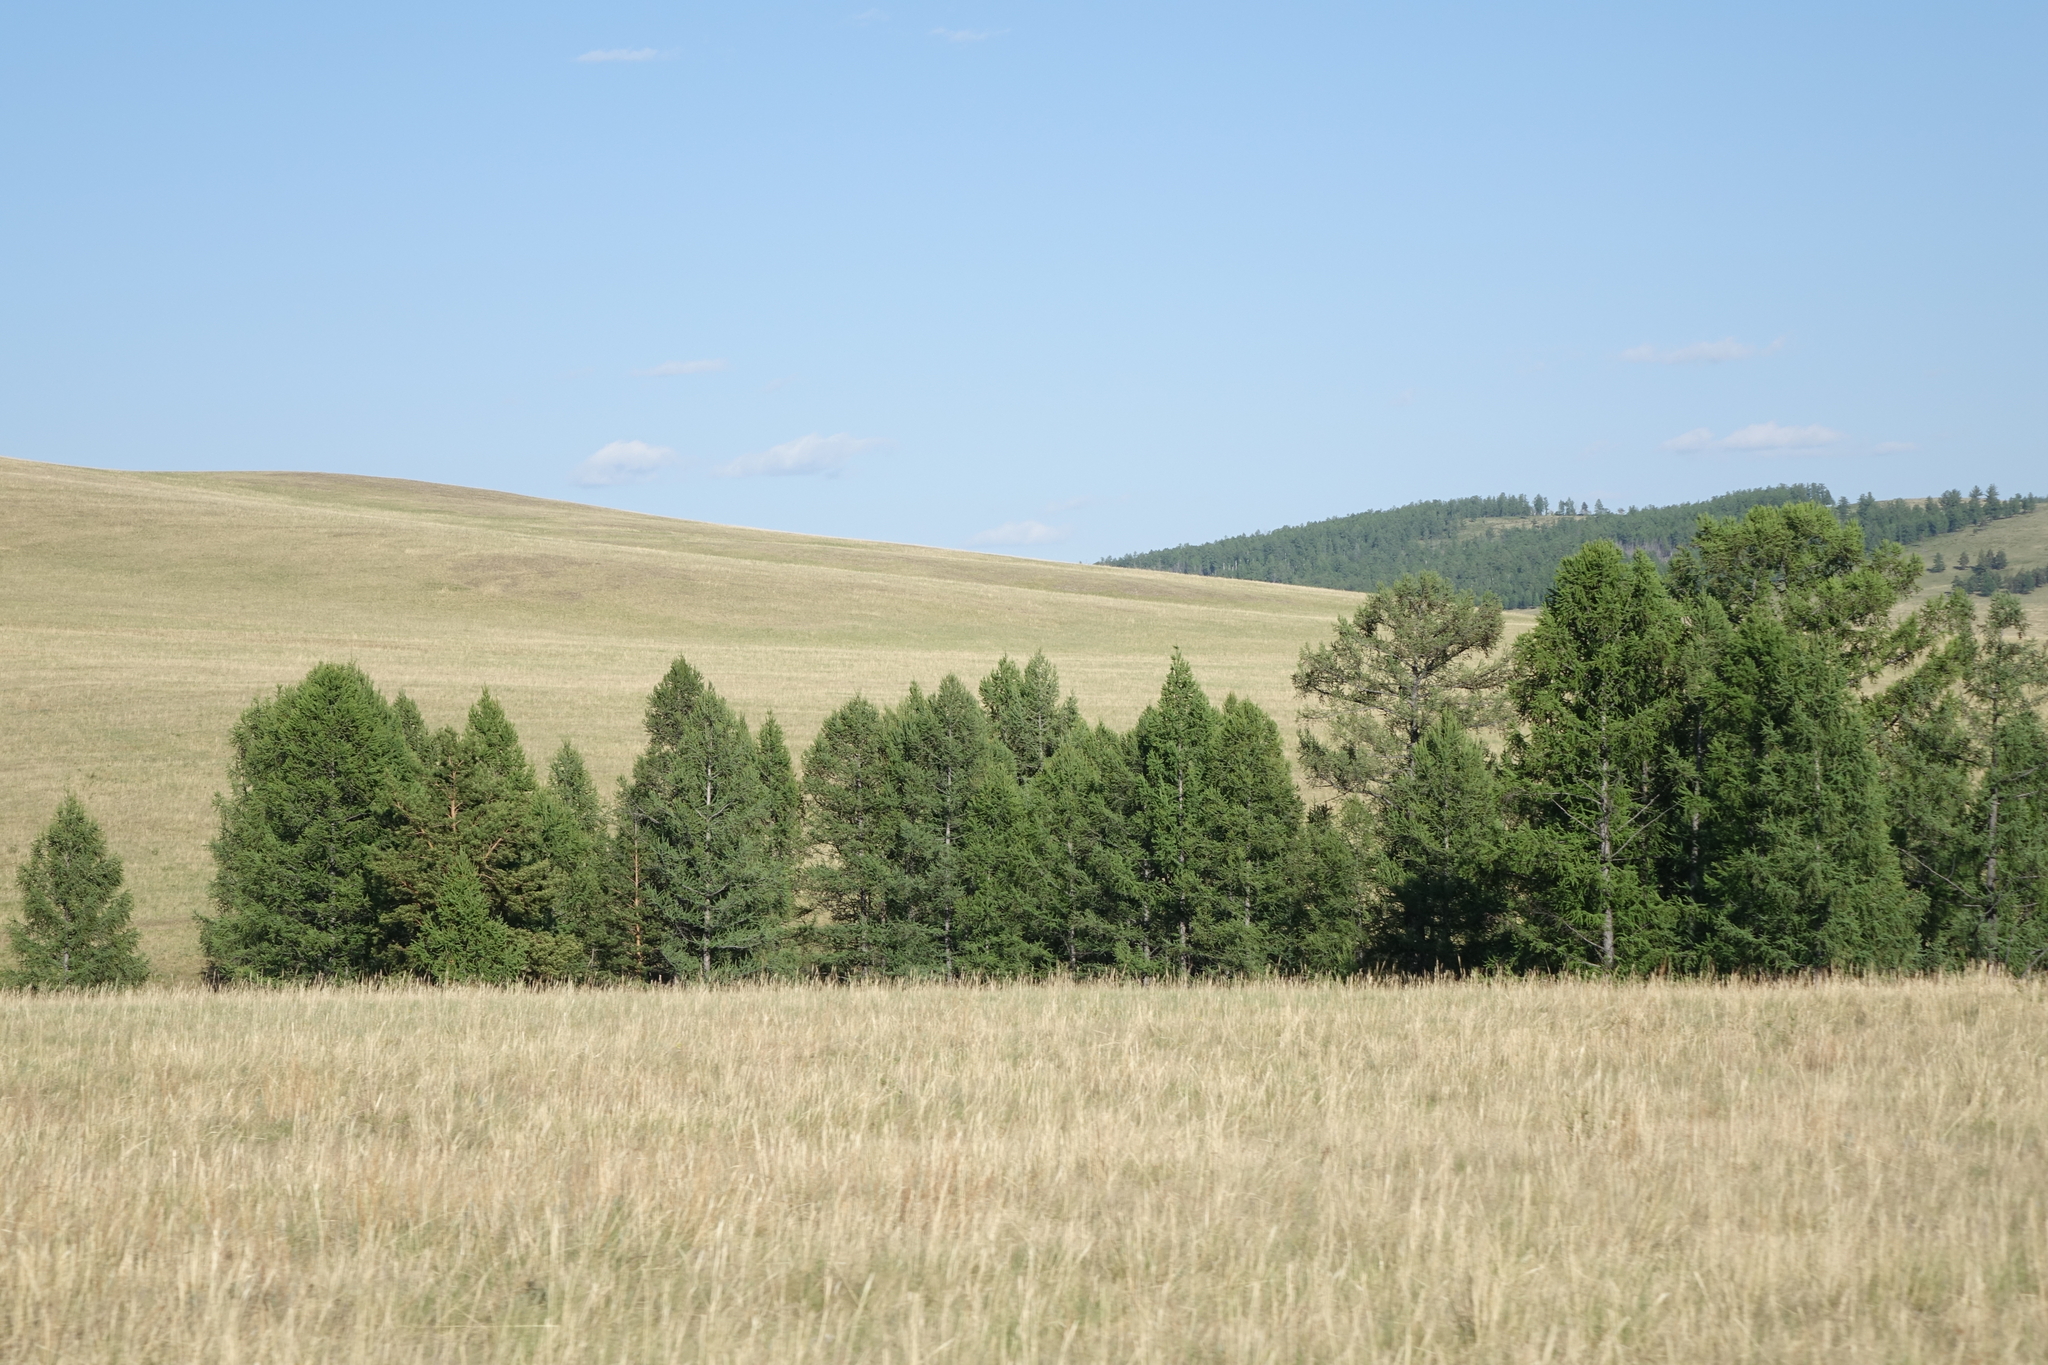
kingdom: Plantae
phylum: Tracheophyta
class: Pinopsida
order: Pinales
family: Pinaceae
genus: Larix
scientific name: Larix sibirica
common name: Siberian larch
